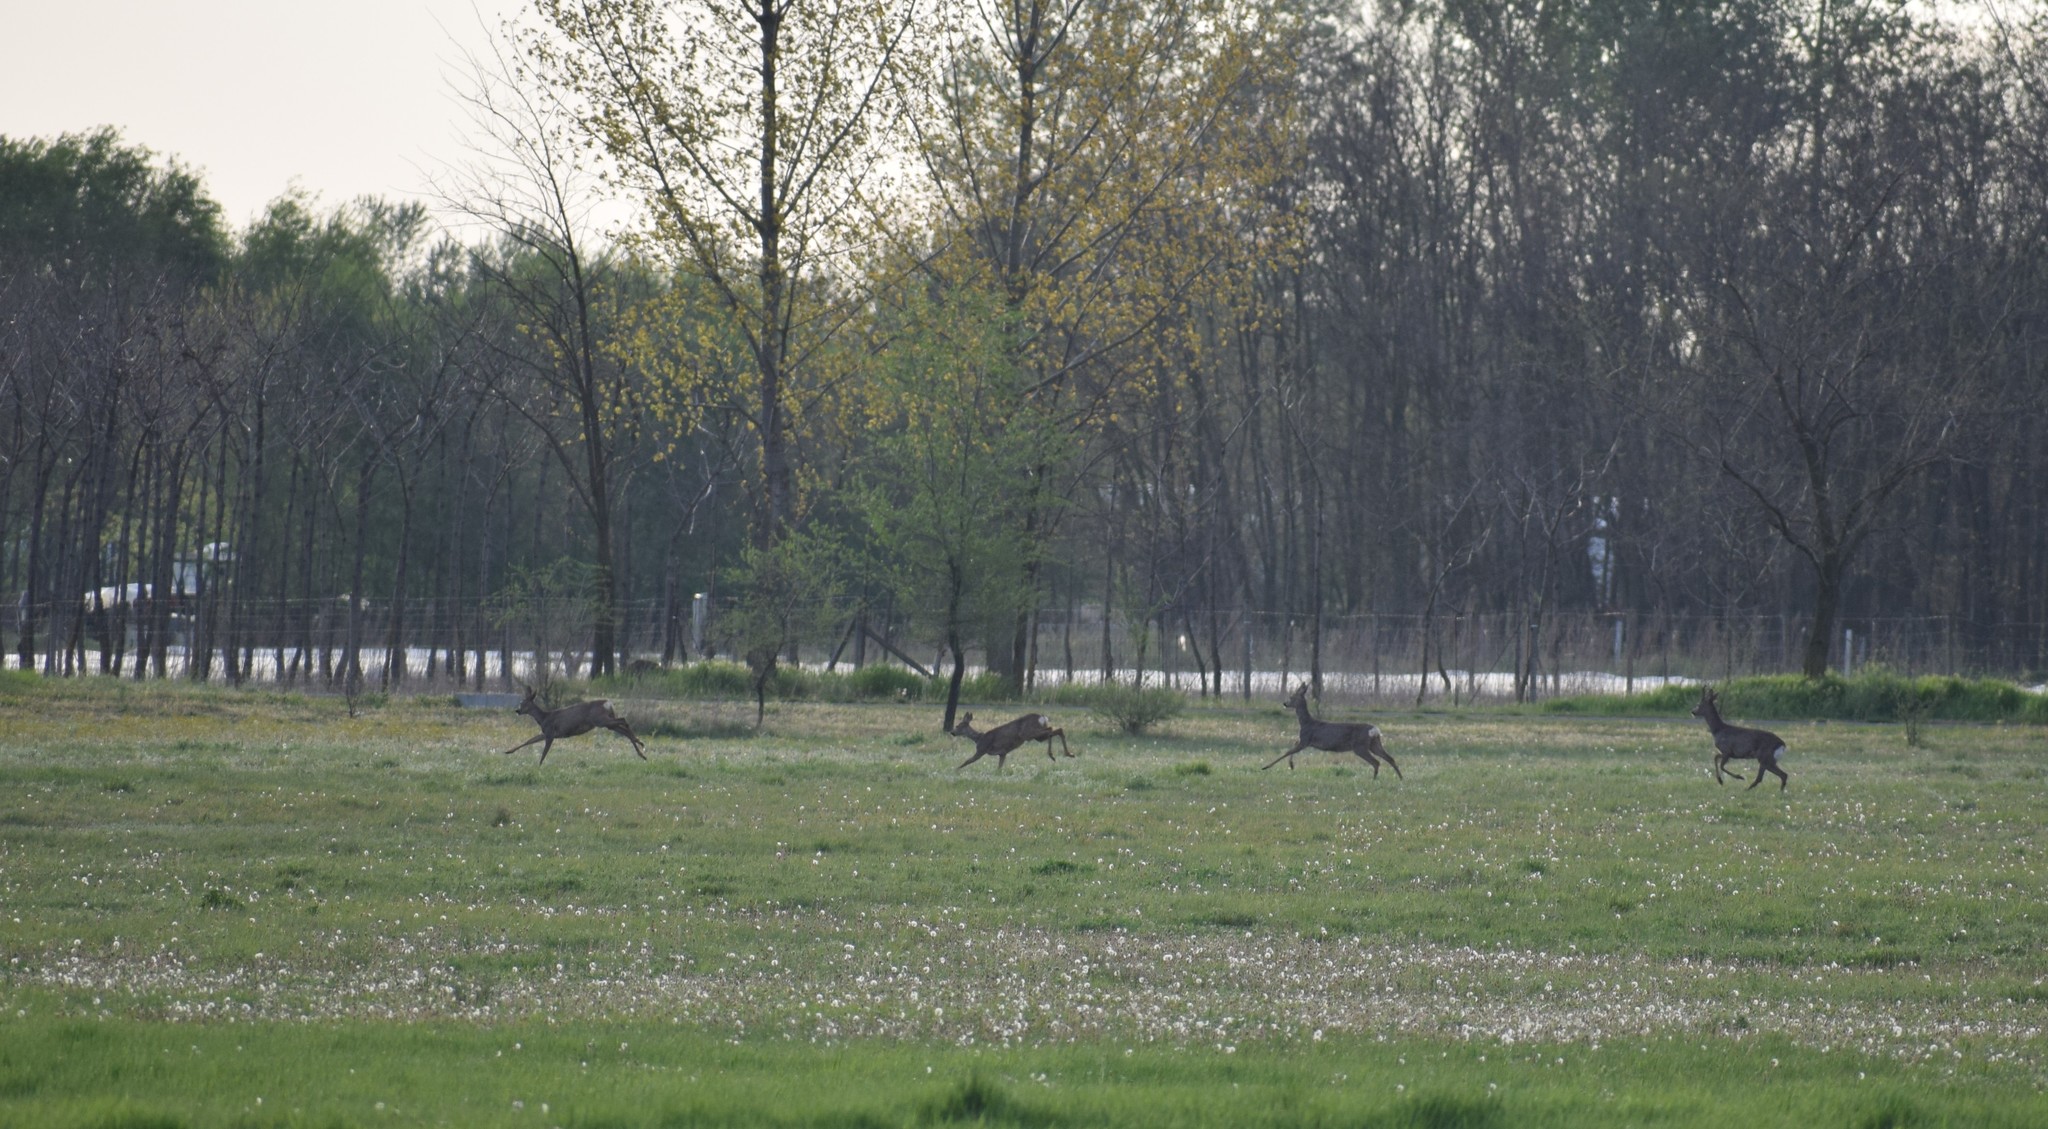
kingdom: Animalia
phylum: Chordata
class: Mammalia
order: Artiodactyla
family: Cervidae
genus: Capreolus
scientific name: Capreolus capreolus
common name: Western roe deer
